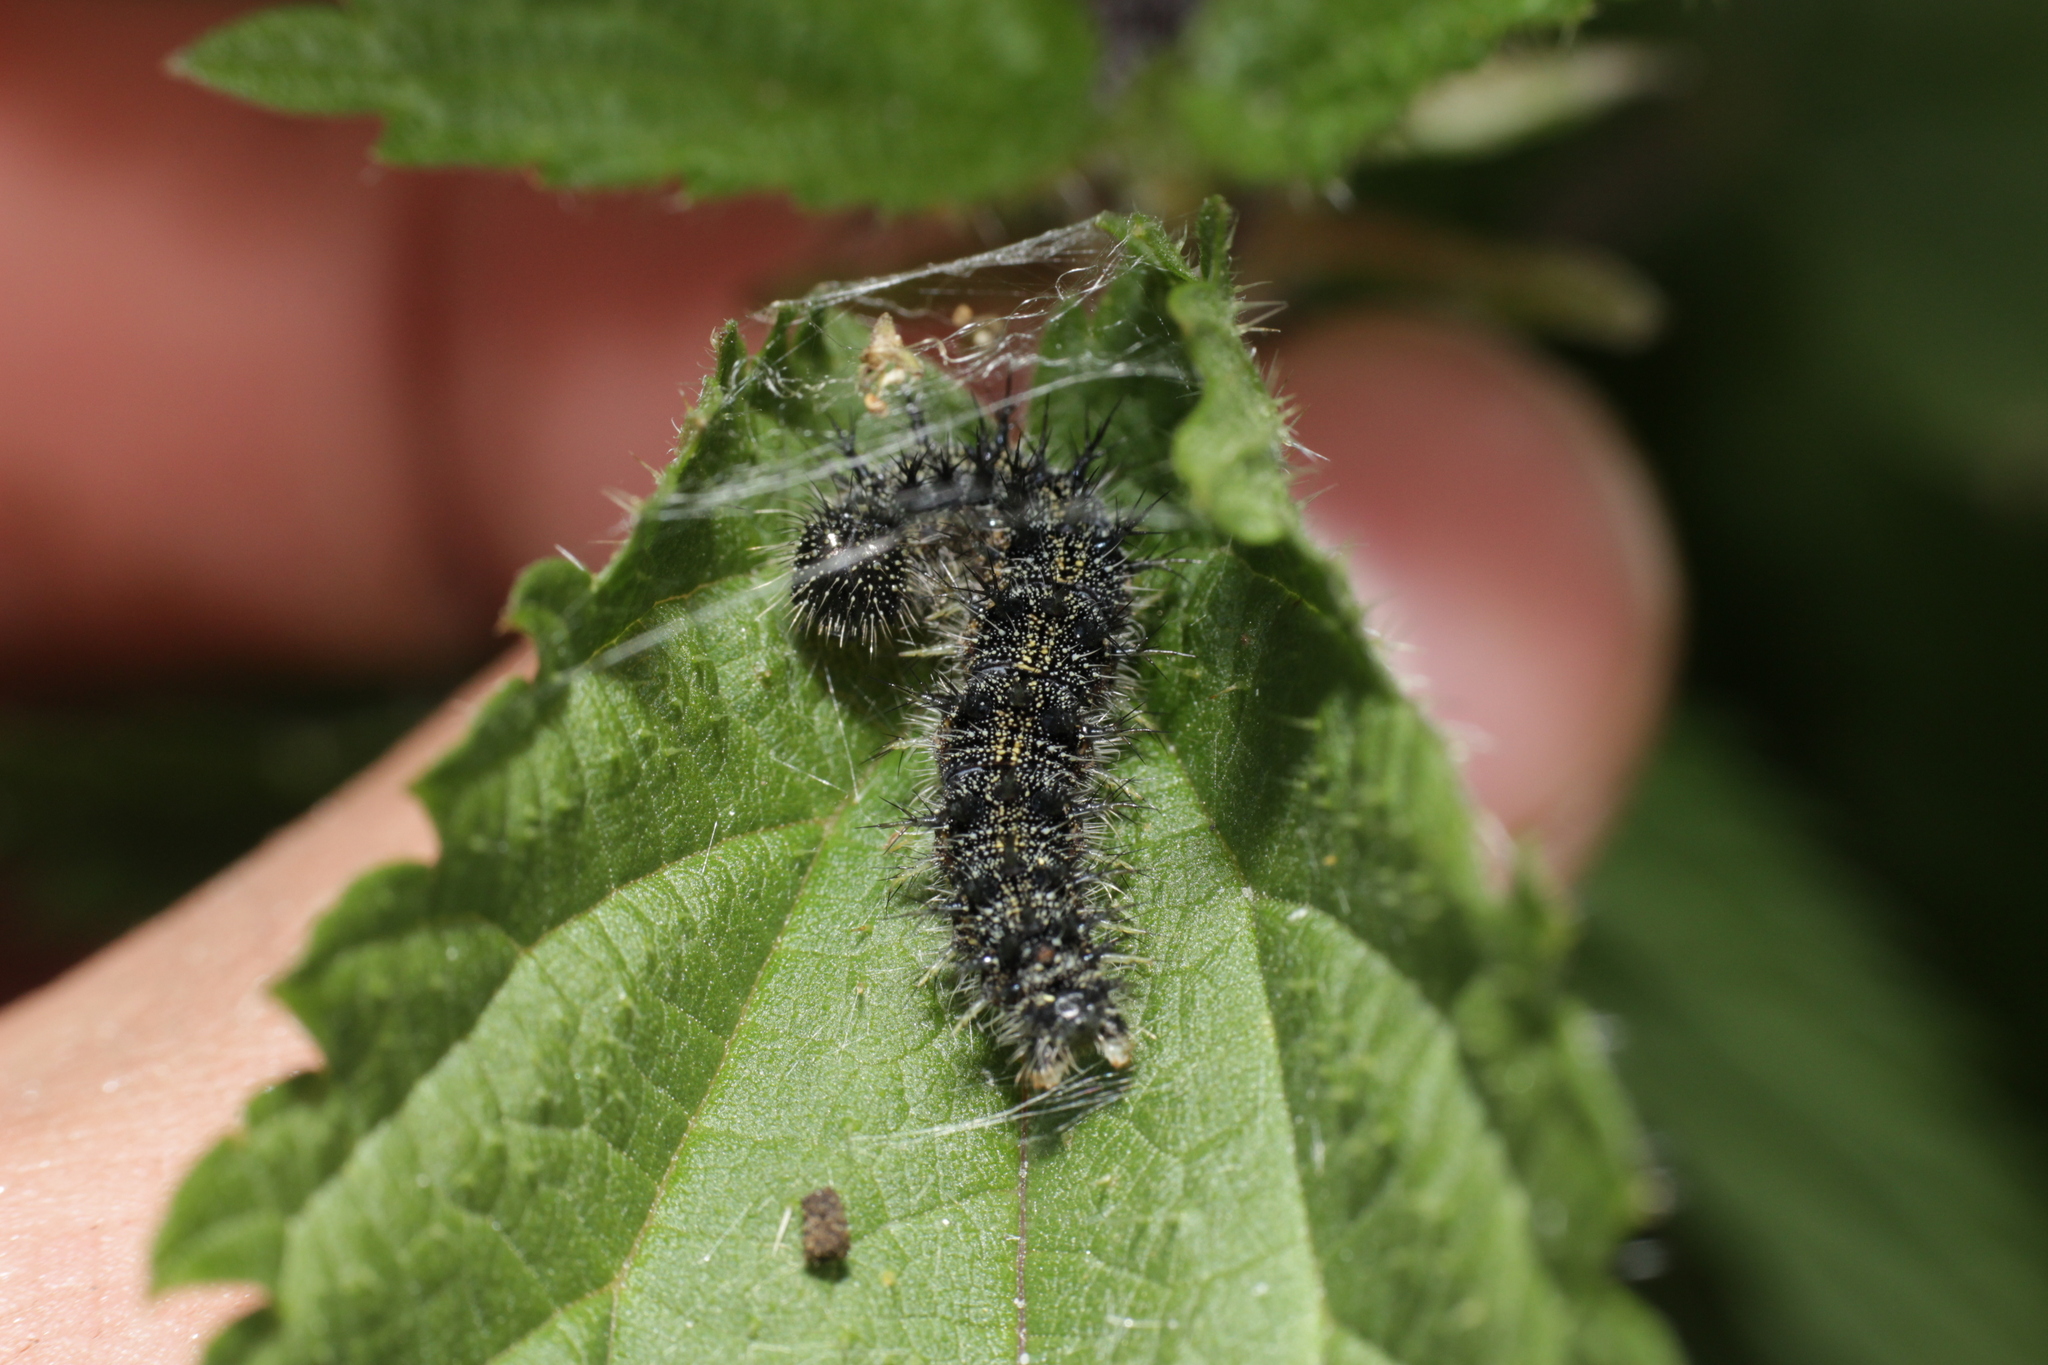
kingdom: Animalia
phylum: Arthropoda
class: Insecta
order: Lepidoptera
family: Nymphalidae
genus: Aglais
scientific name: Aglais urticae
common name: Small tortoiseshell
